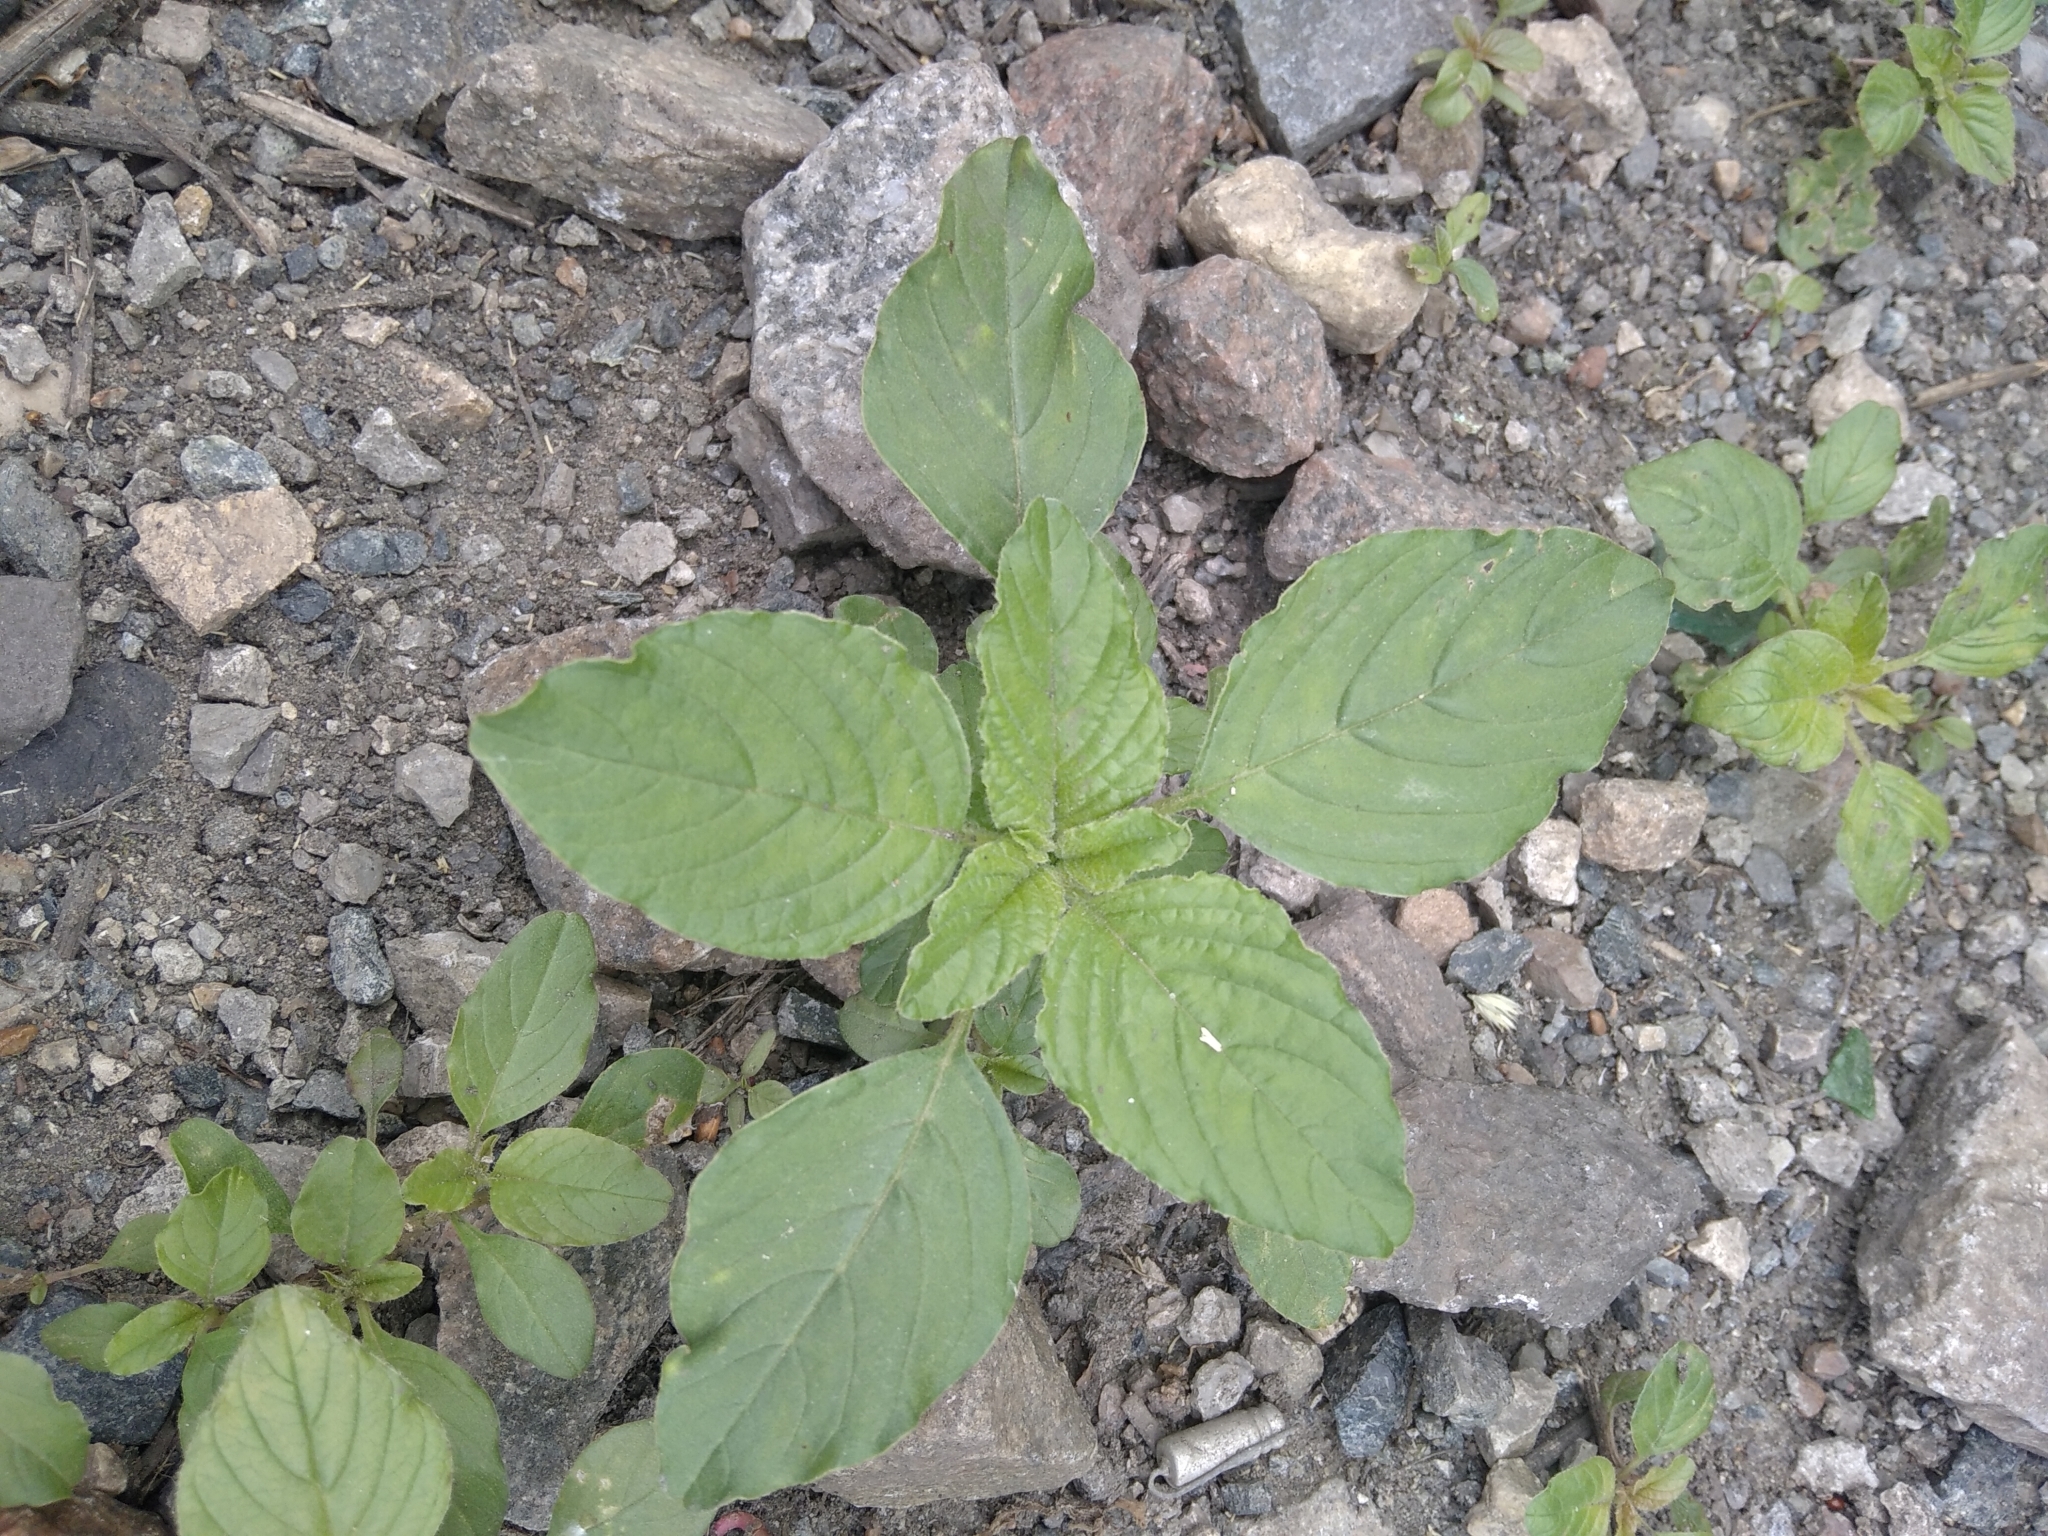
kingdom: Plantae
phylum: Tracheophyta
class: Magnoliopsida
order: Caryophyllales
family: Amaranthaceae
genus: Amaranthus
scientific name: Amaranthus retroflexus
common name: Redroot amaranth
